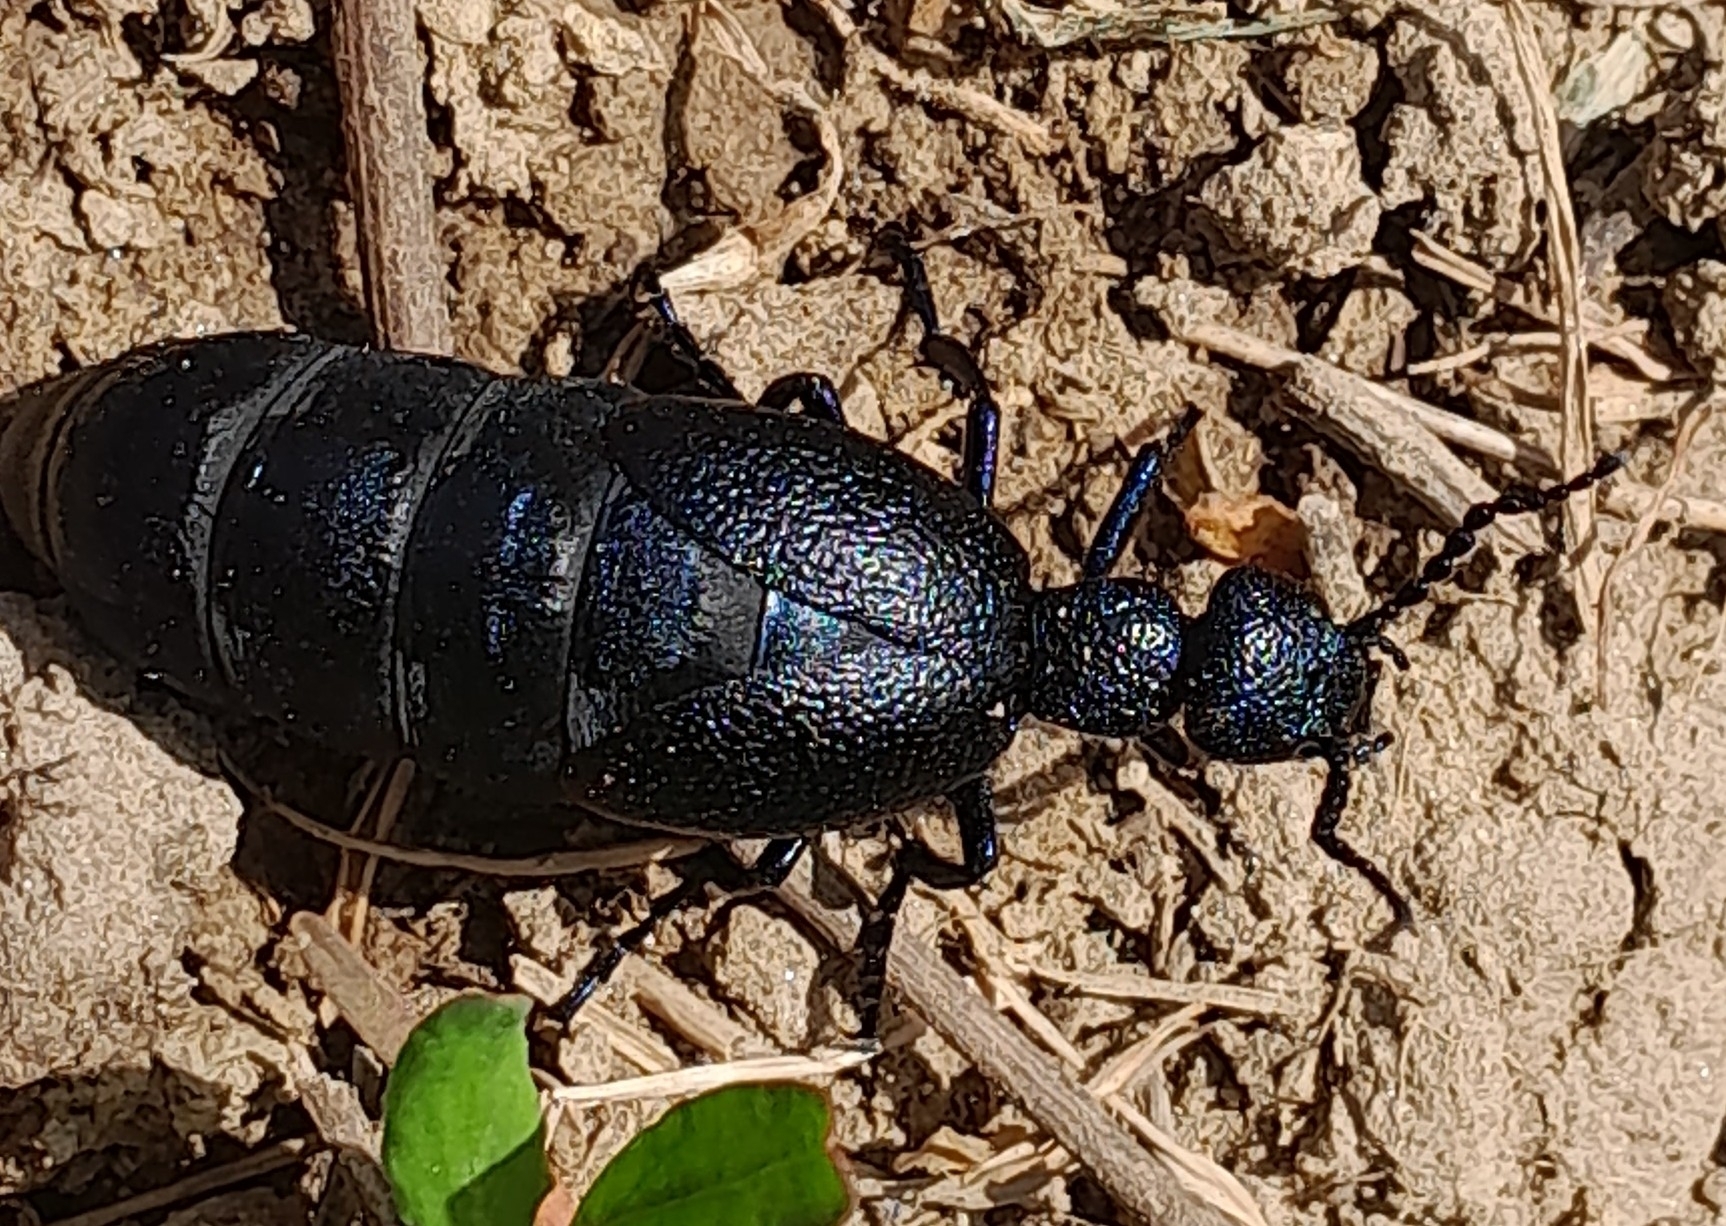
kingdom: Animalia
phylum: Arthropoda
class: Insecta
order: Coleoptera
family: Meloidae
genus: Meloe
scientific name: Meloe proscarabaeus
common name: Black oil-beetle
